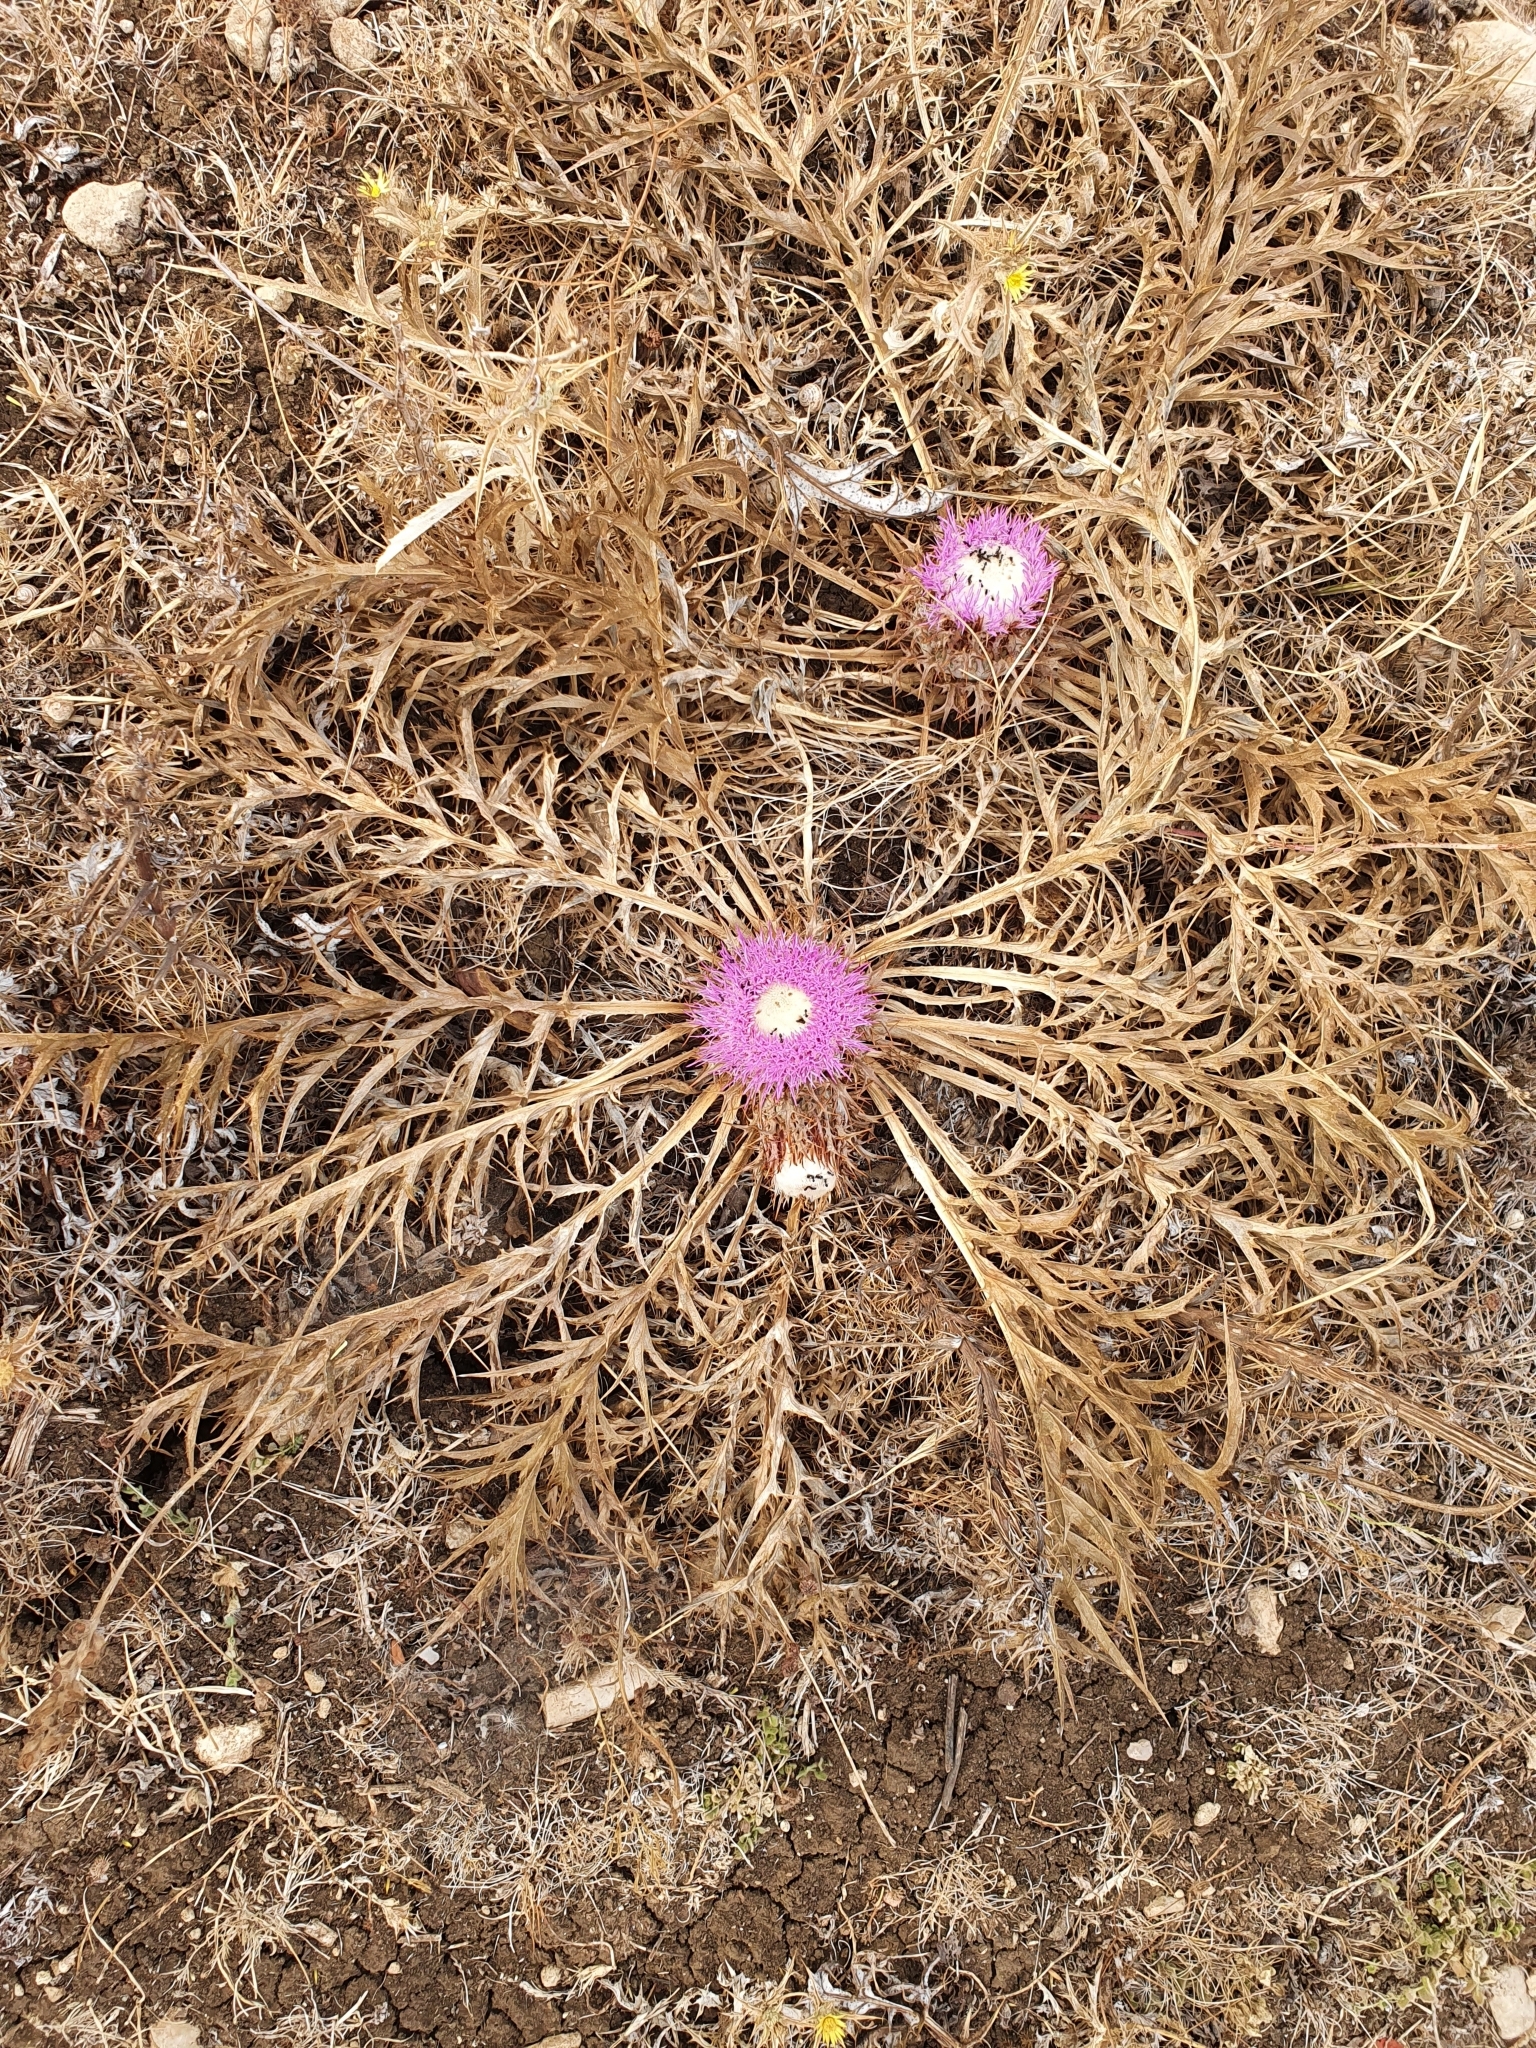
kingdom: Plantae
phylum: Tracheophyta
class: Magnoliopsida
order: Asterales
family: Asteraceae
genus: Chamaeleon
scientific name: Chamaeleon gummifer
